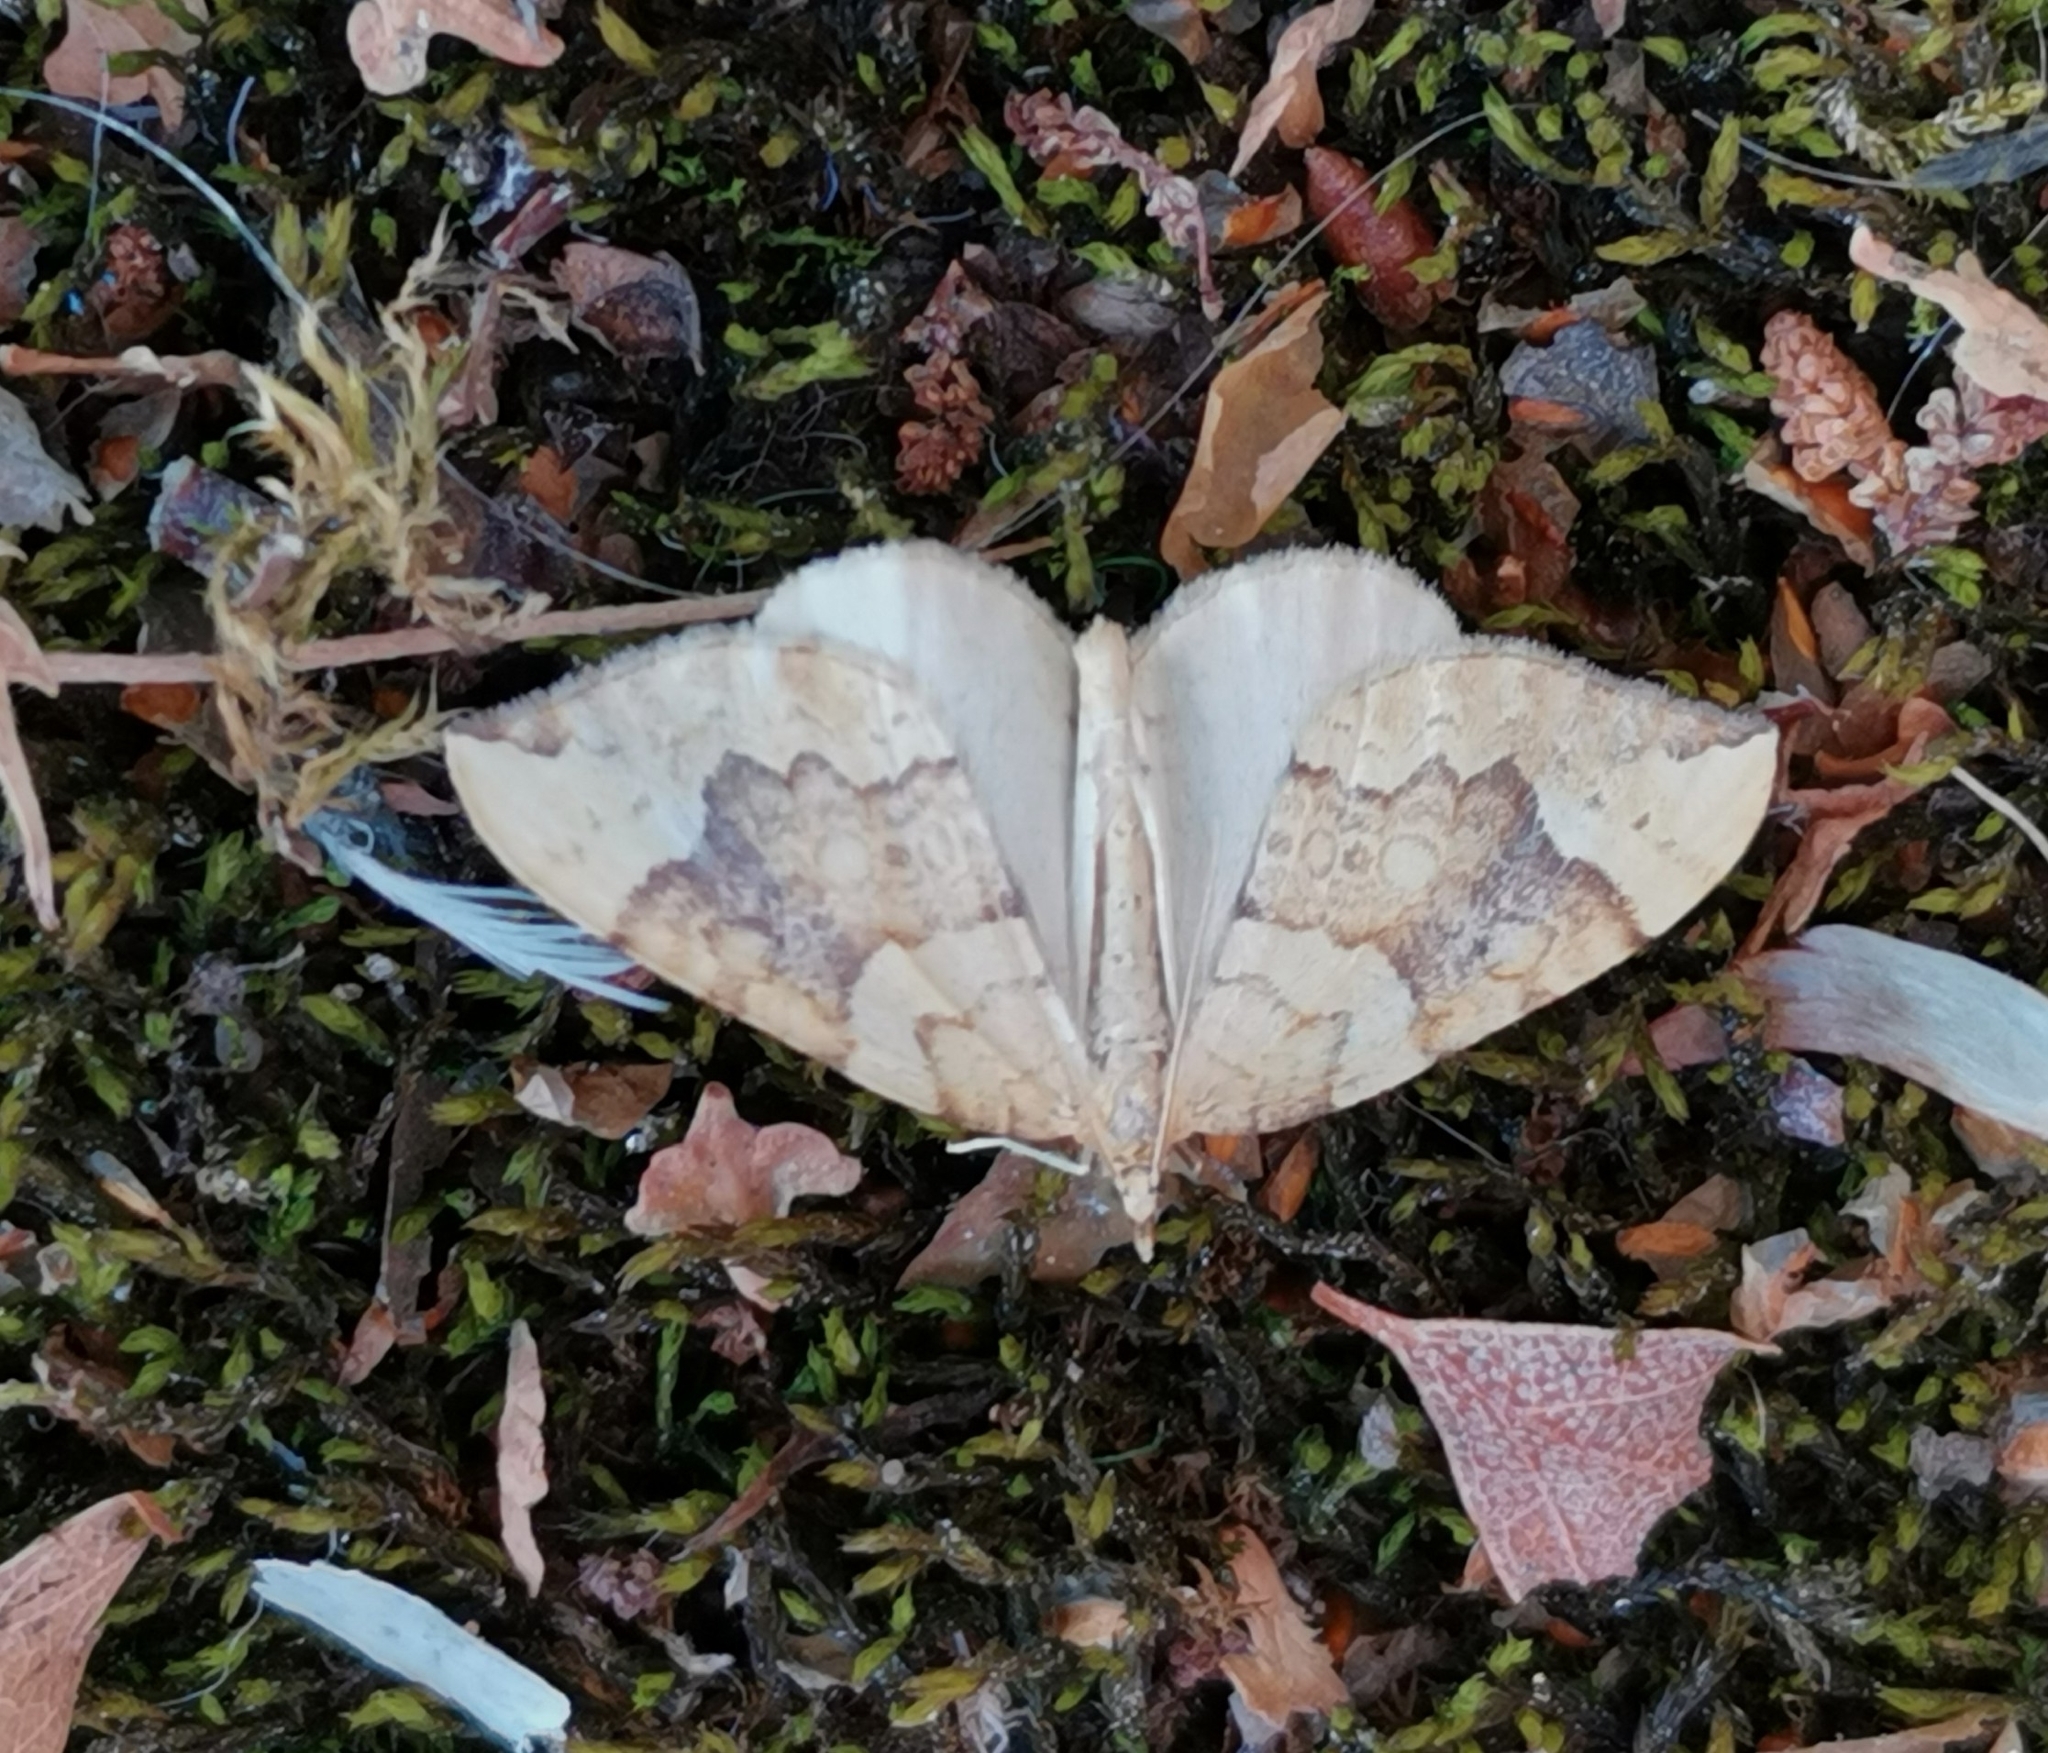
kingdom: Animalia
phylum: Arthropoda
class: Insecta
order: Lepidoptera
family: Geometridae
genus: Eulithis
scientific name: Eulithis populata
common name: Northern spinach
